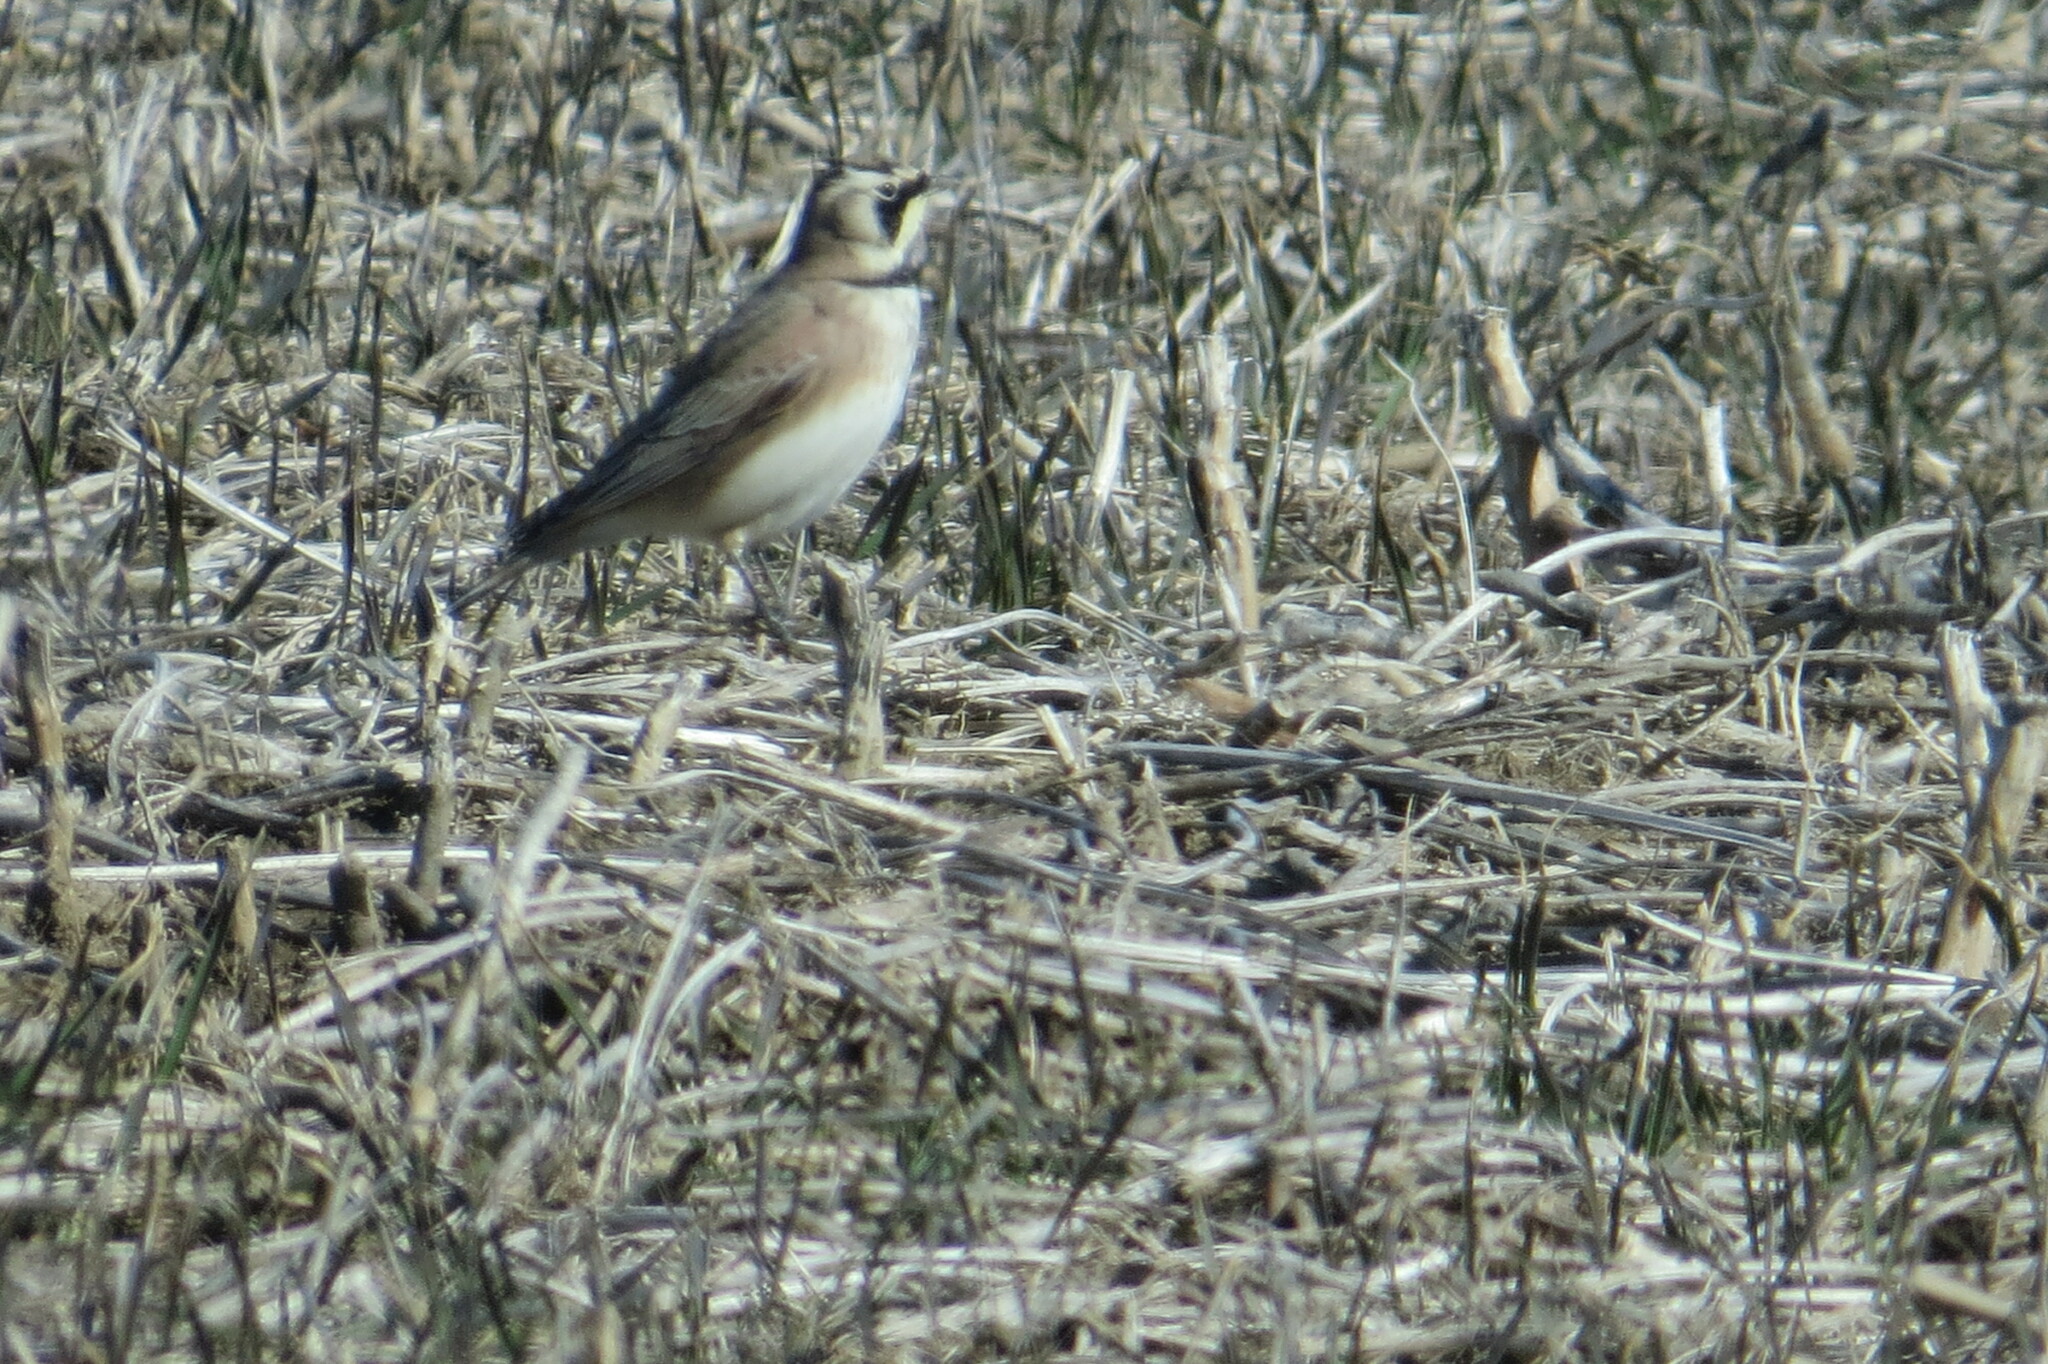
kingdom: Animalia
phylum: Chordata
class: Aves
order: Passeriformes
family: Alaudidae
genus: Eremophila
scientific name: Eremophila alpestris
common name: Horned lark
